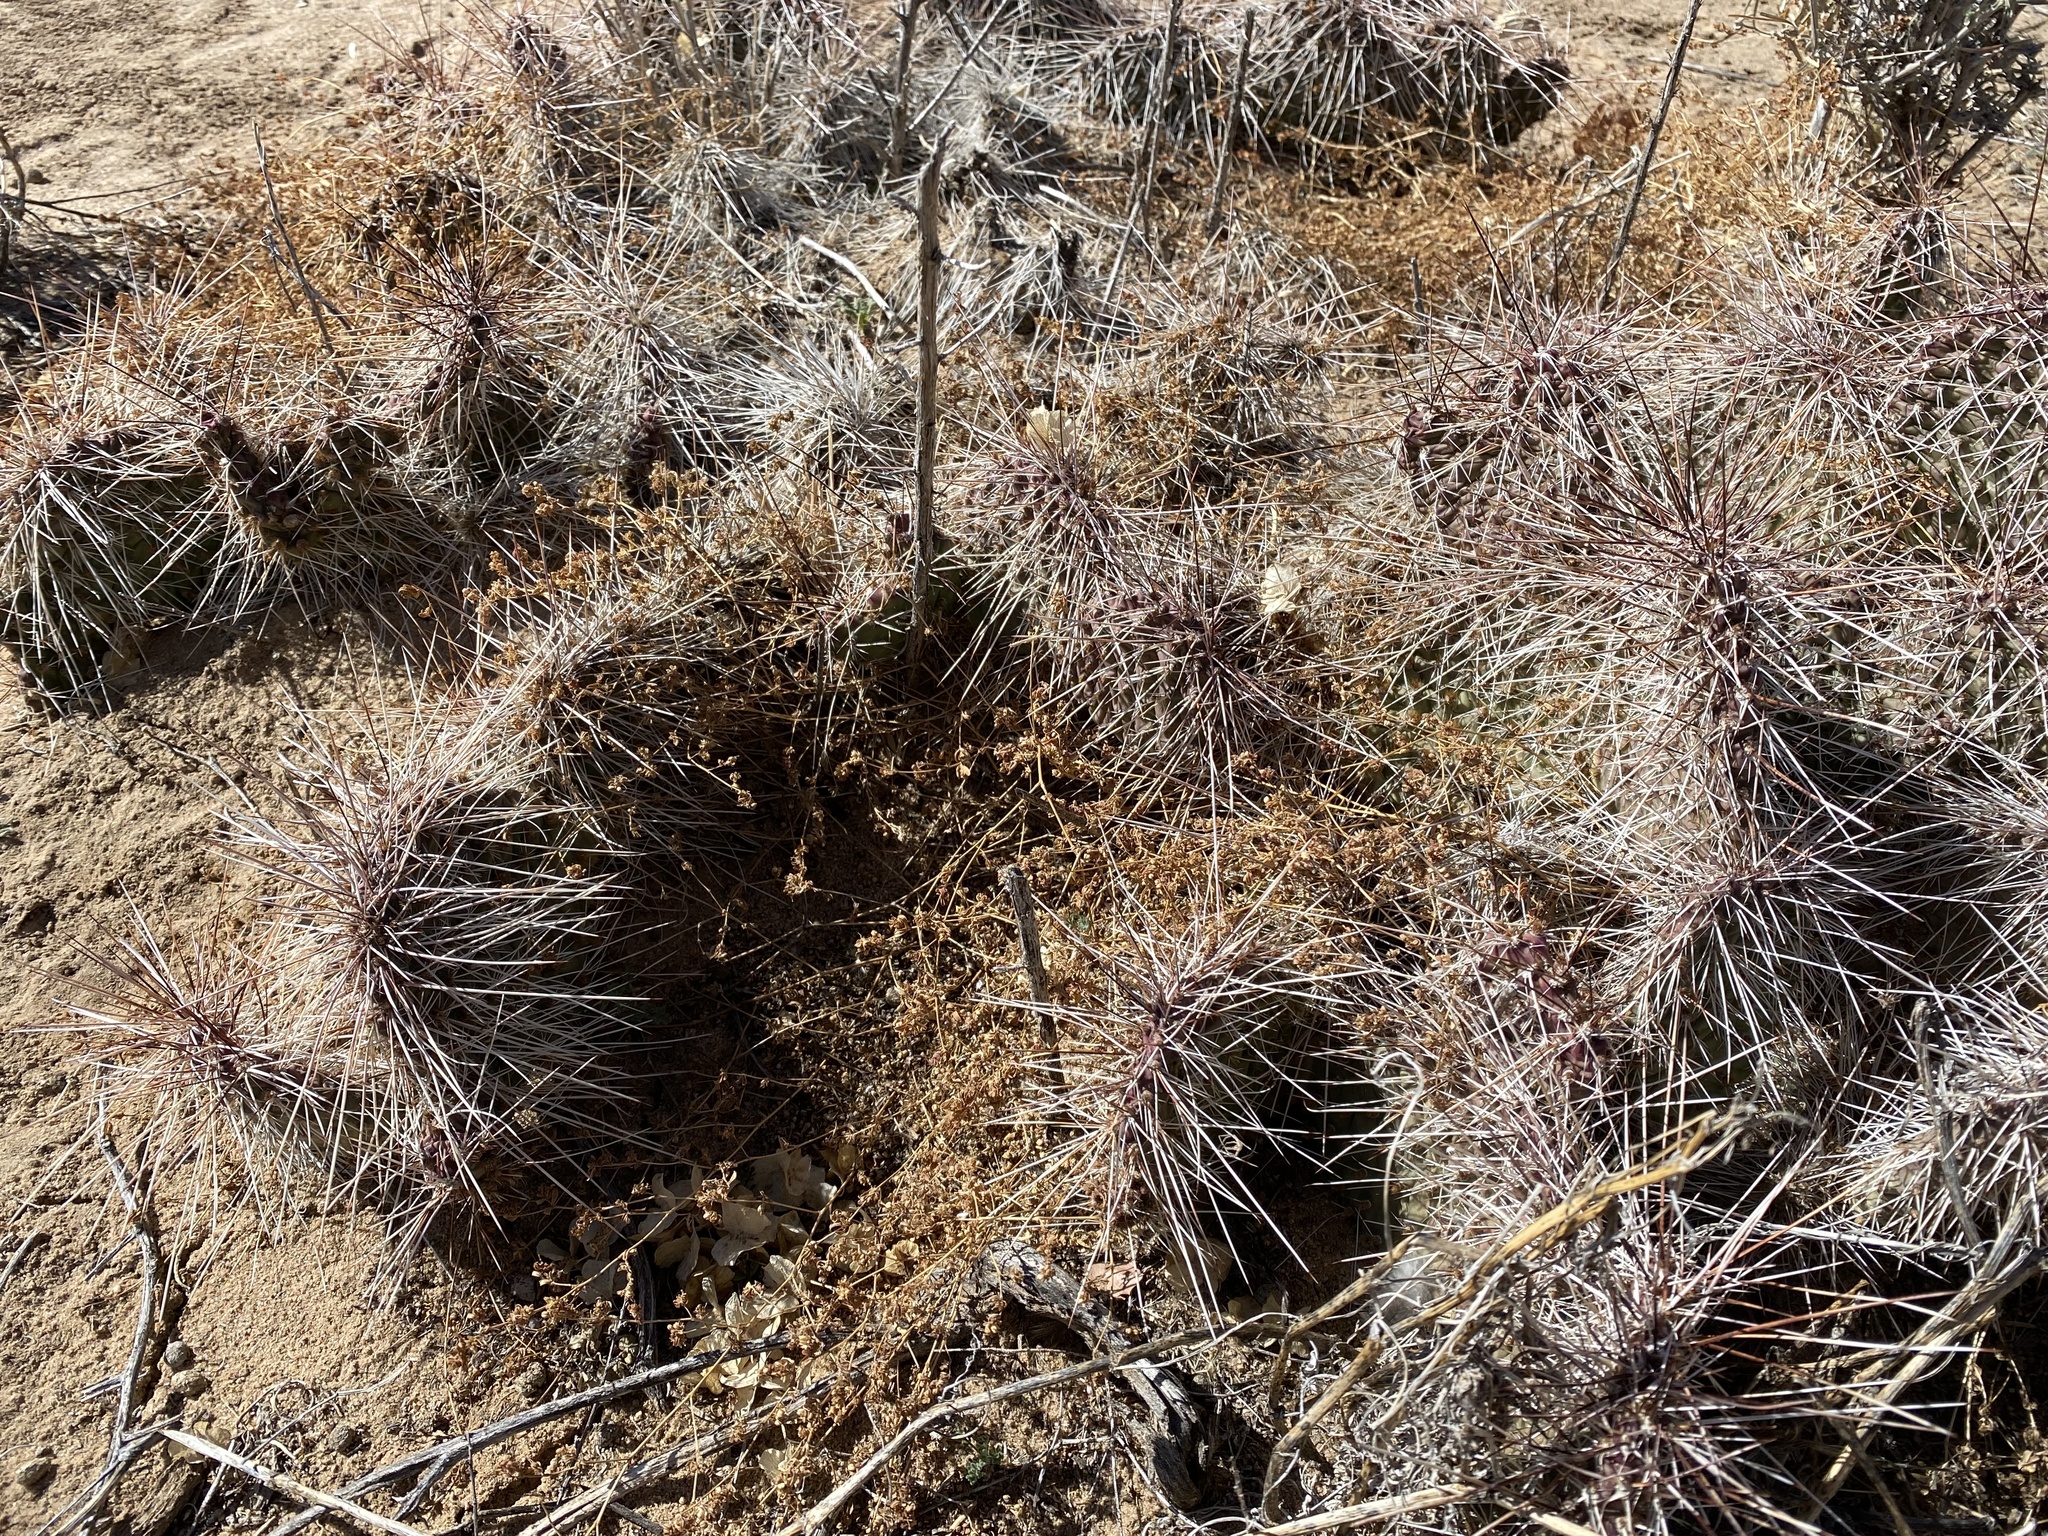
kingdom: Plantae
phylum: Tracheophyta
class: Magnoliopsida
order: Caryophyllales
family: Cactaceae
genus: Opuntia
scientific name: Opuntia polyacantha
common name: Plains prickly-pear
